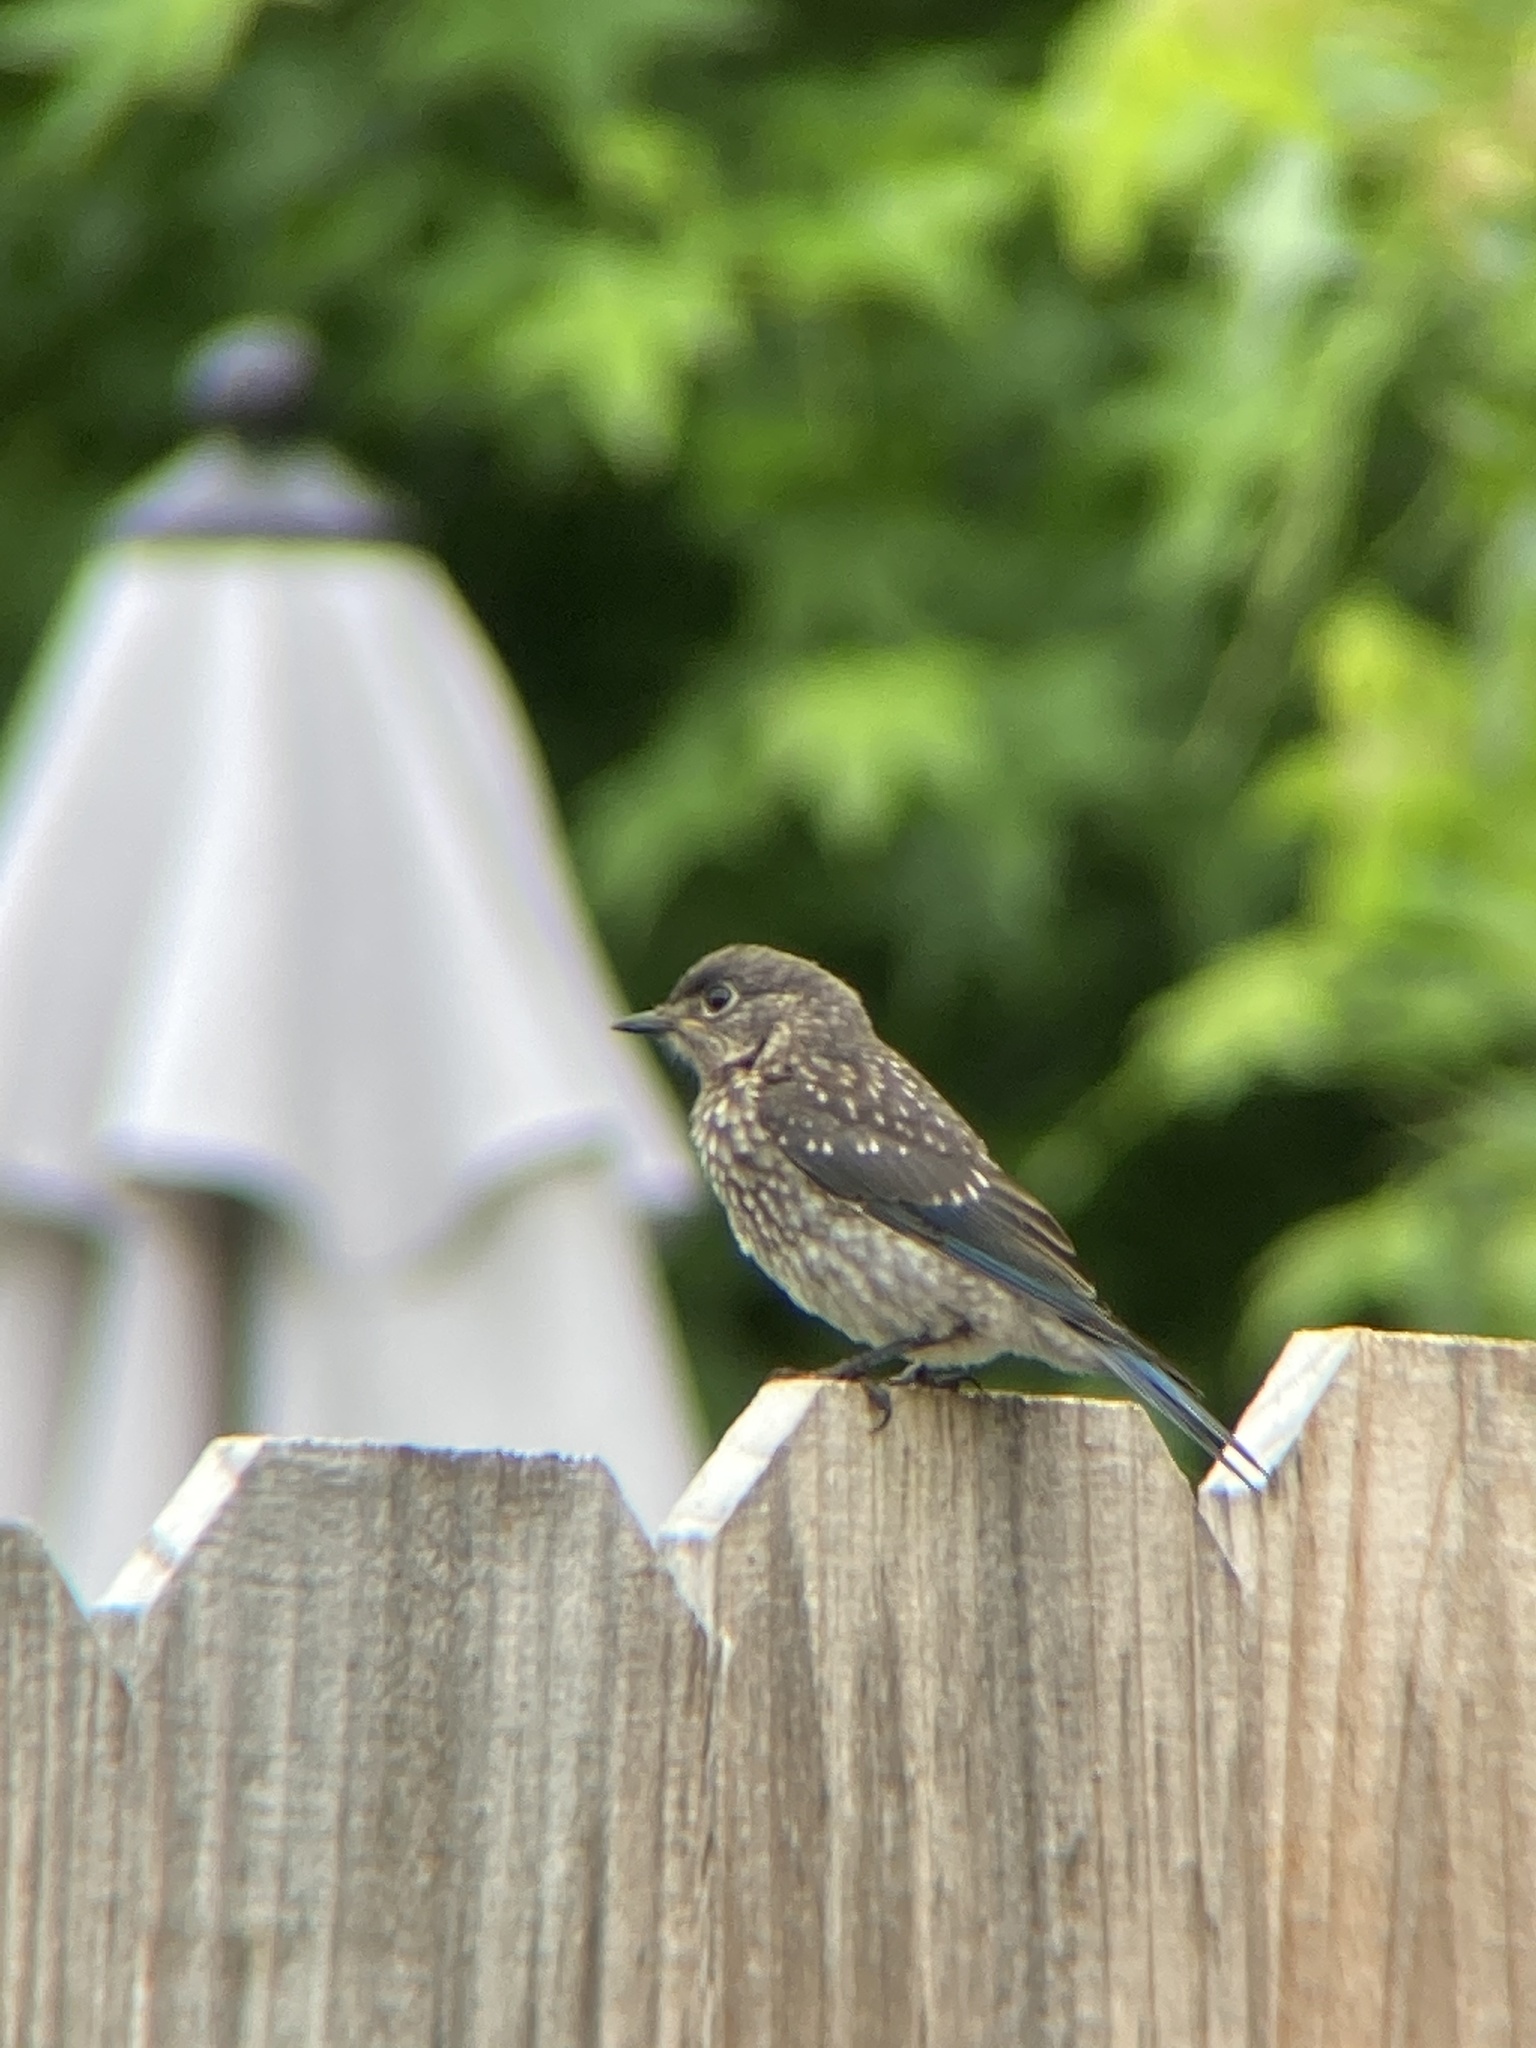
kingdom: Animalia
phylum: Chordata
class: Aves
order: Passeriformes
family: Turdidae
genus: Sialia
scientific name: Sialia sialis
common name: Eastern bluebird
